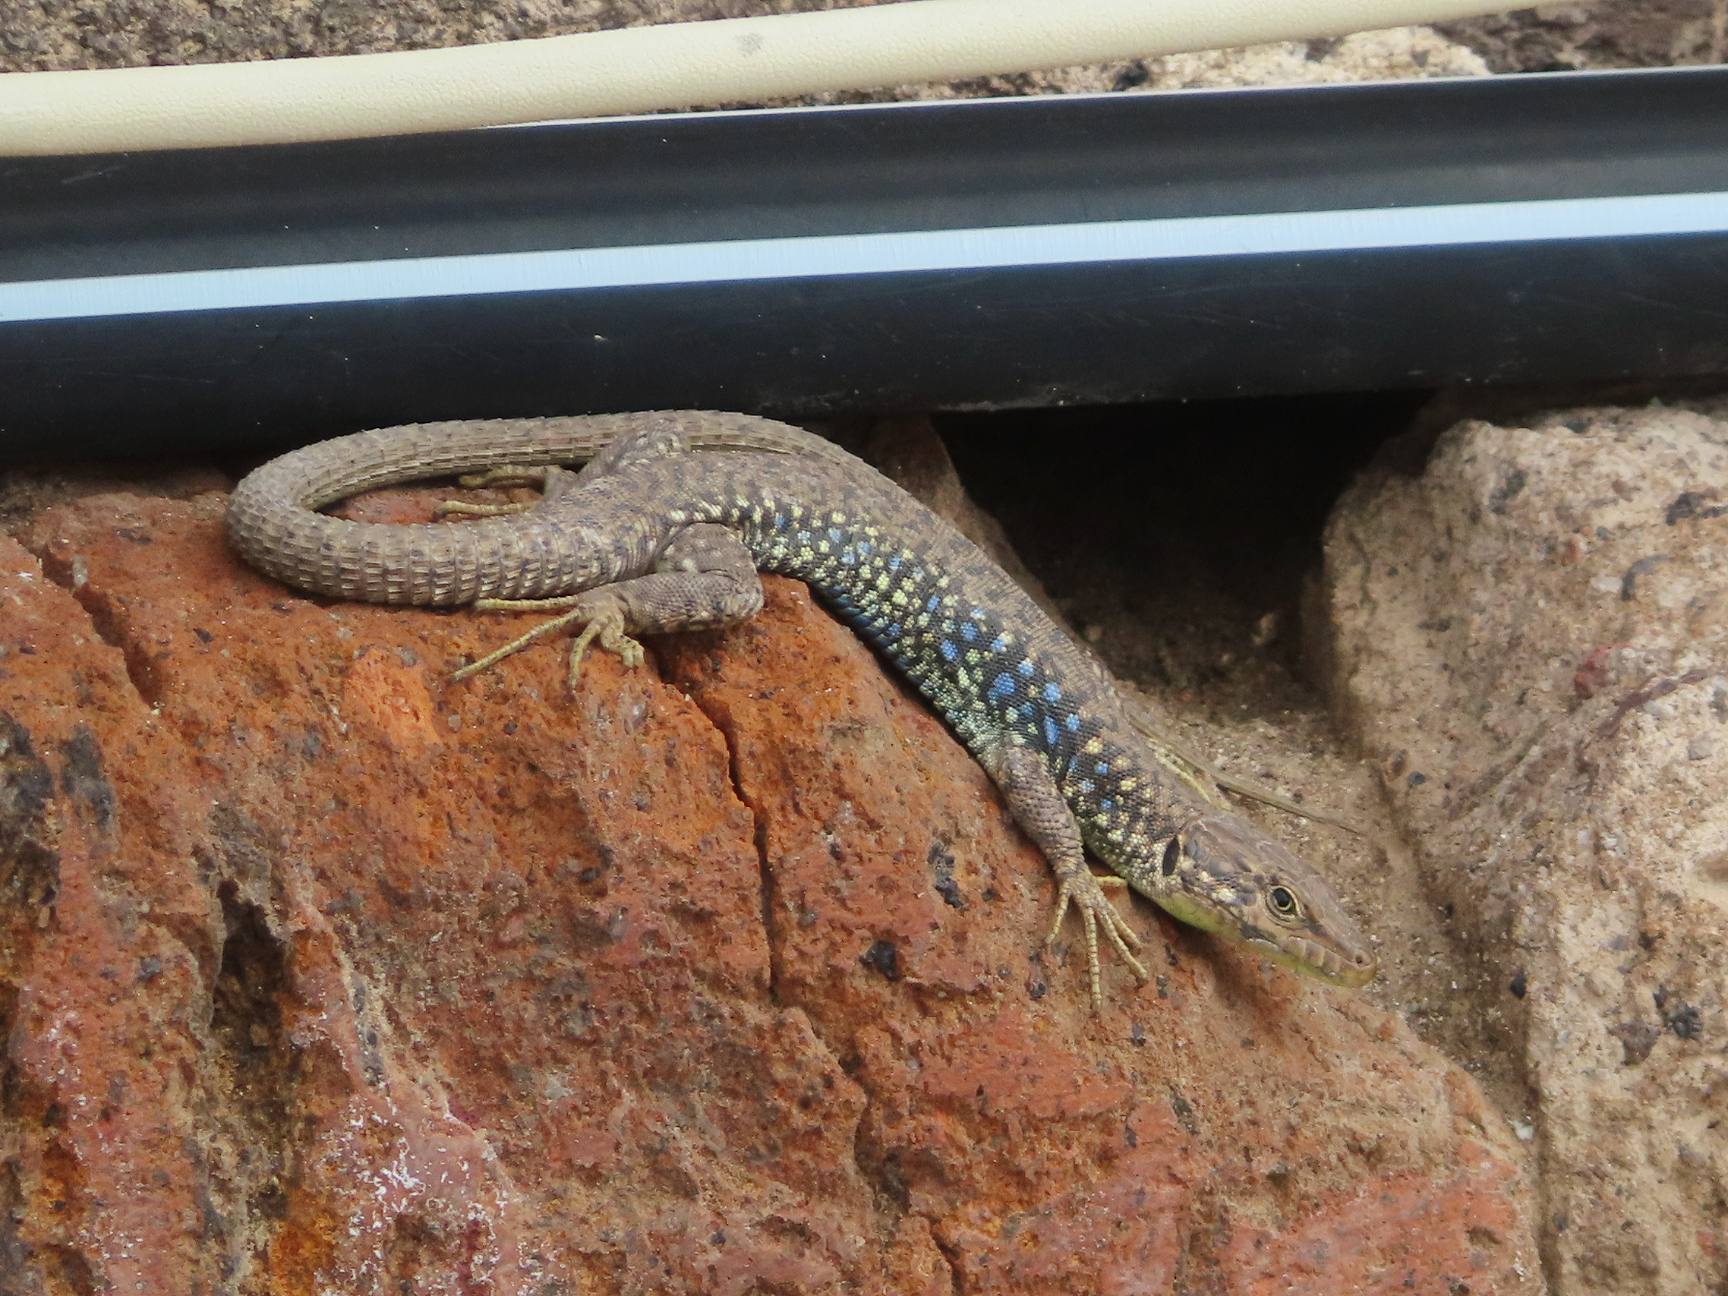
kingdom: Animalia
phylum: Chordata
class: Squamata
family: Lacertidae
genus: Darevskia
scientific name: Darevskia
